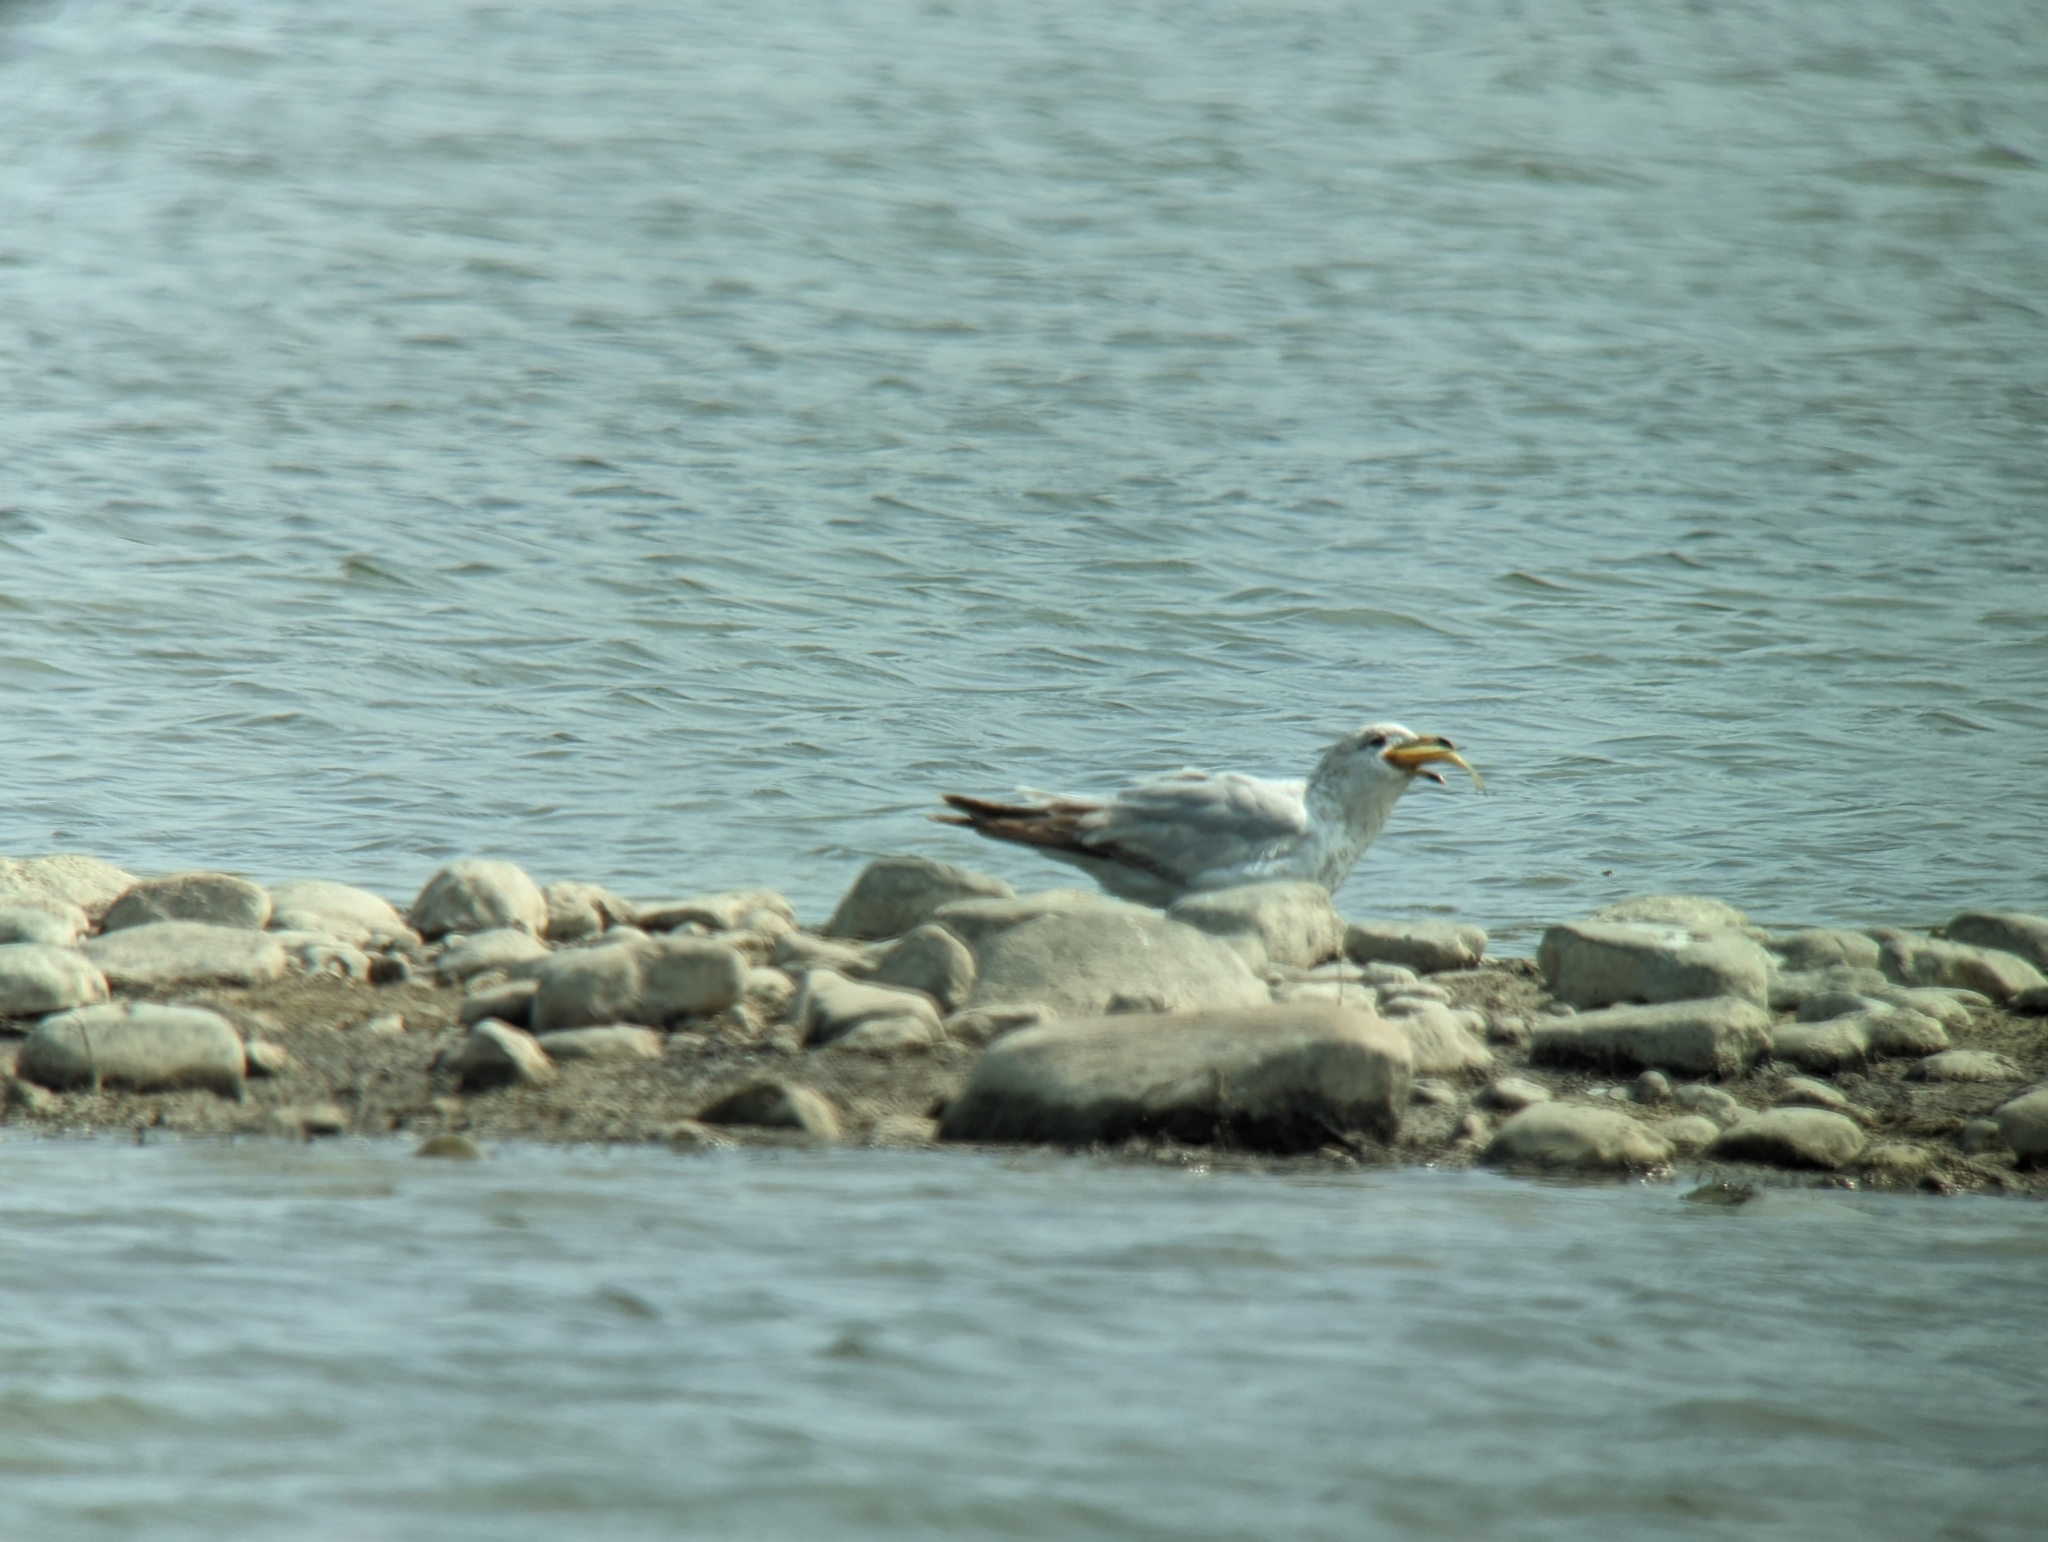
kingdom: Animalia
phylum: Chordata
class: Aves
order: Charadriiformes
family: Laridae
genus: Larus
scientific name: Larus delawarensis
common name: Ring-billed gull
